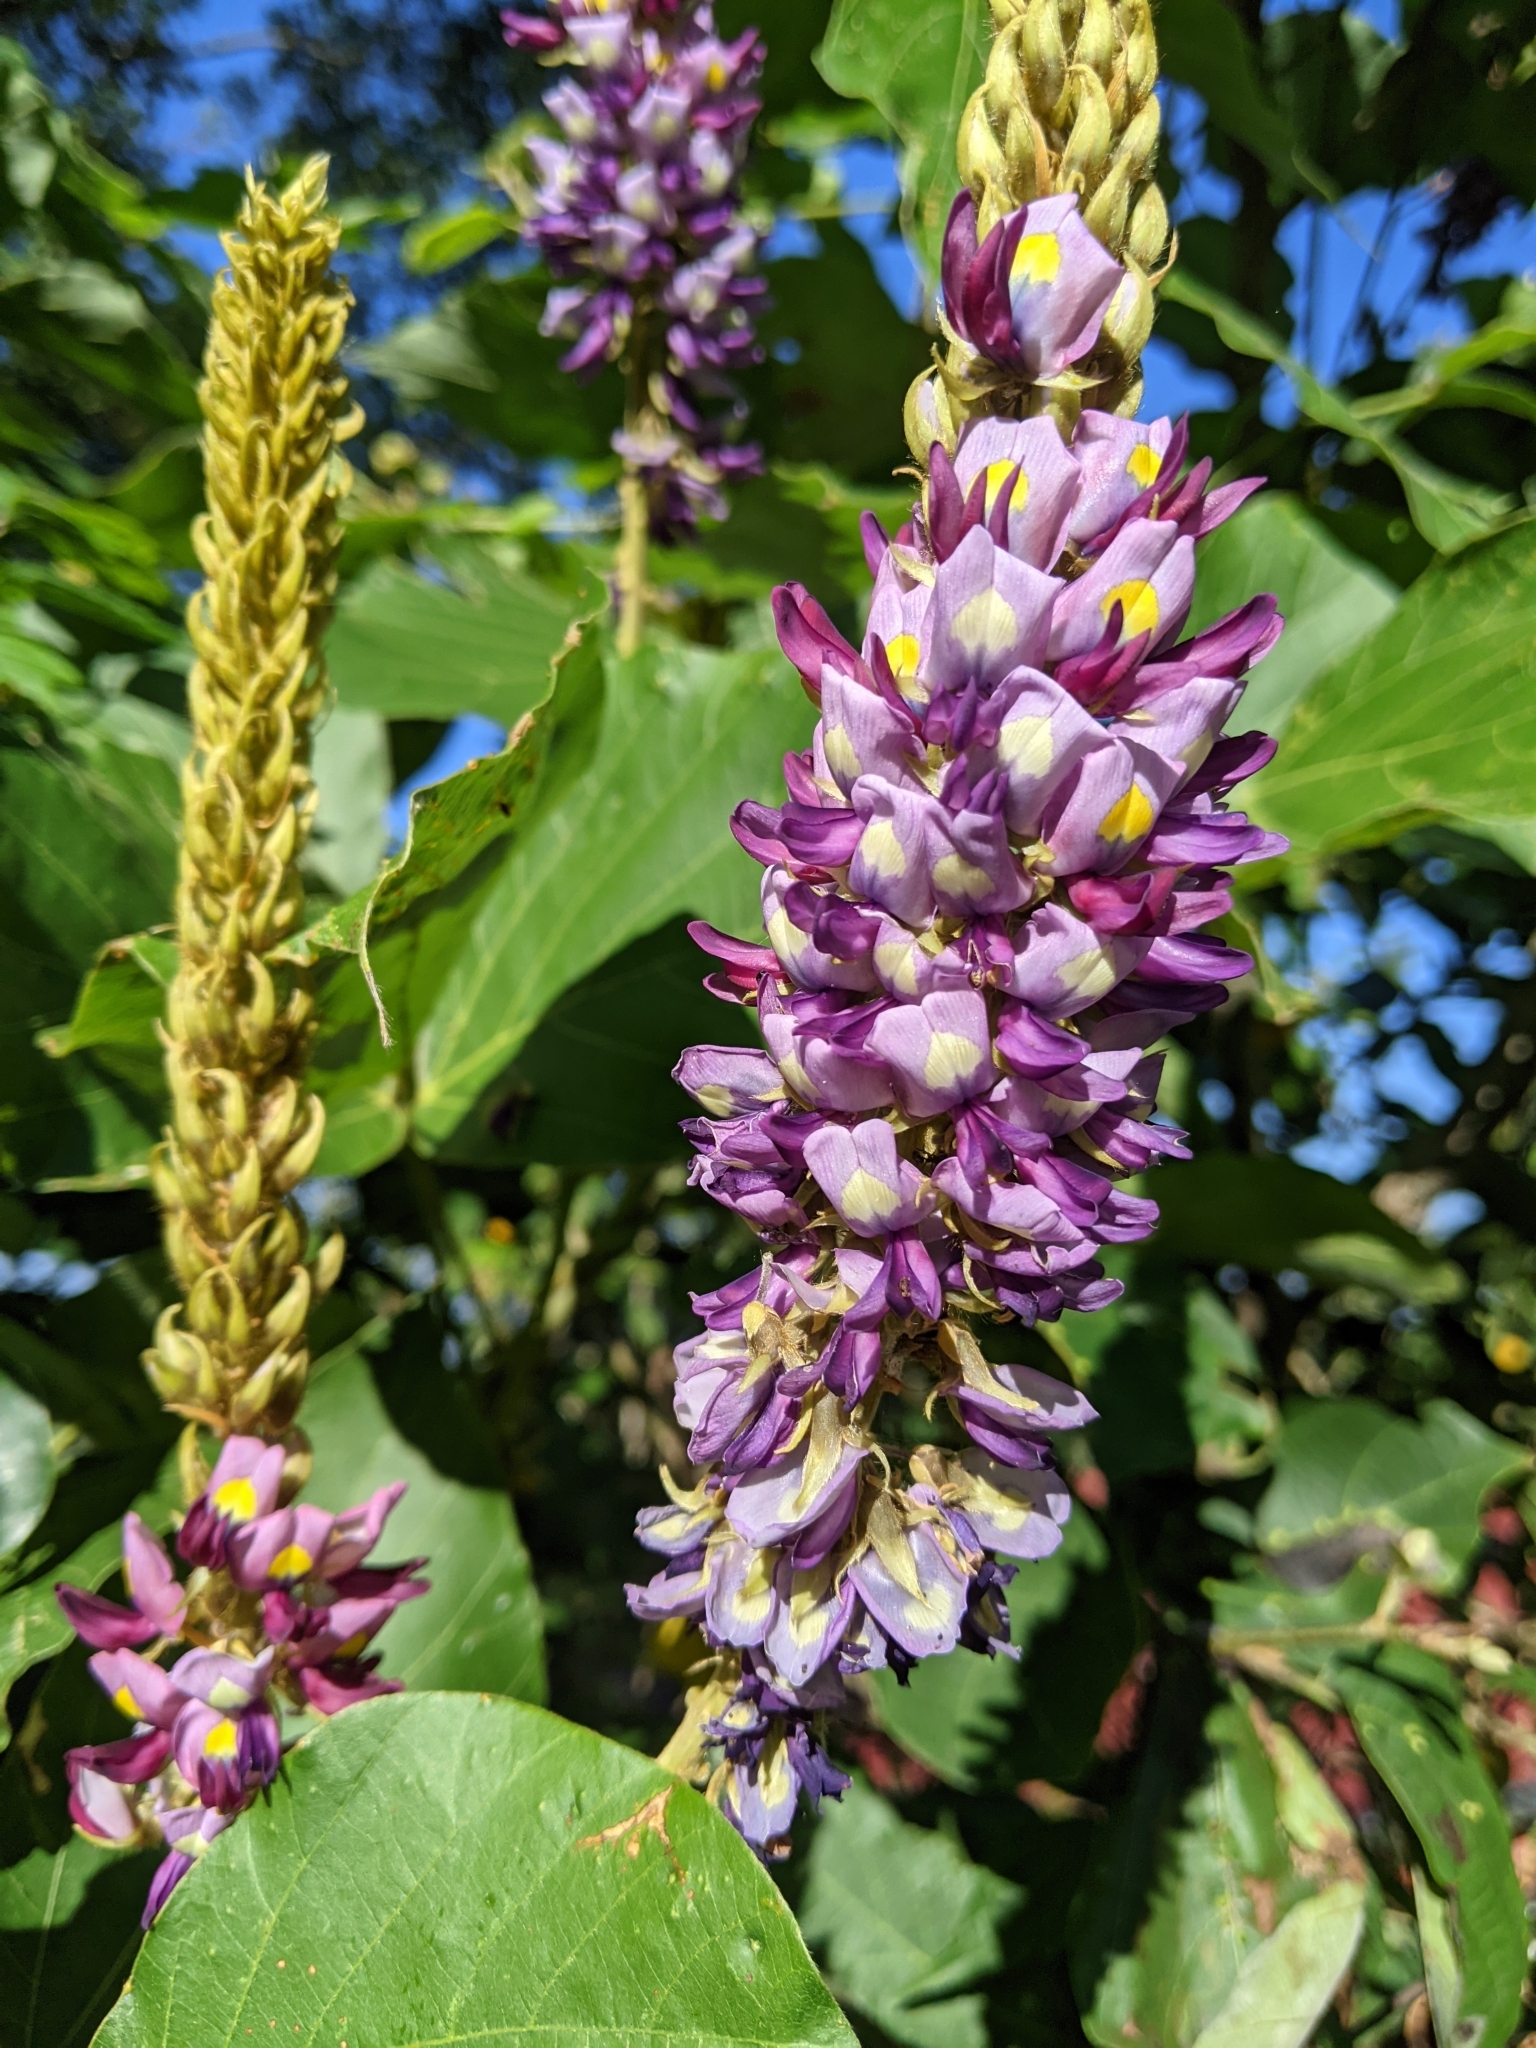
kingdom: Plantae
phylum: Tracheophyta
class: Magnoliopsida
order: Fabales
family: Fabaceae
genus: Pueraria
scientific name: Pueraria montana
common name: Kudzu
